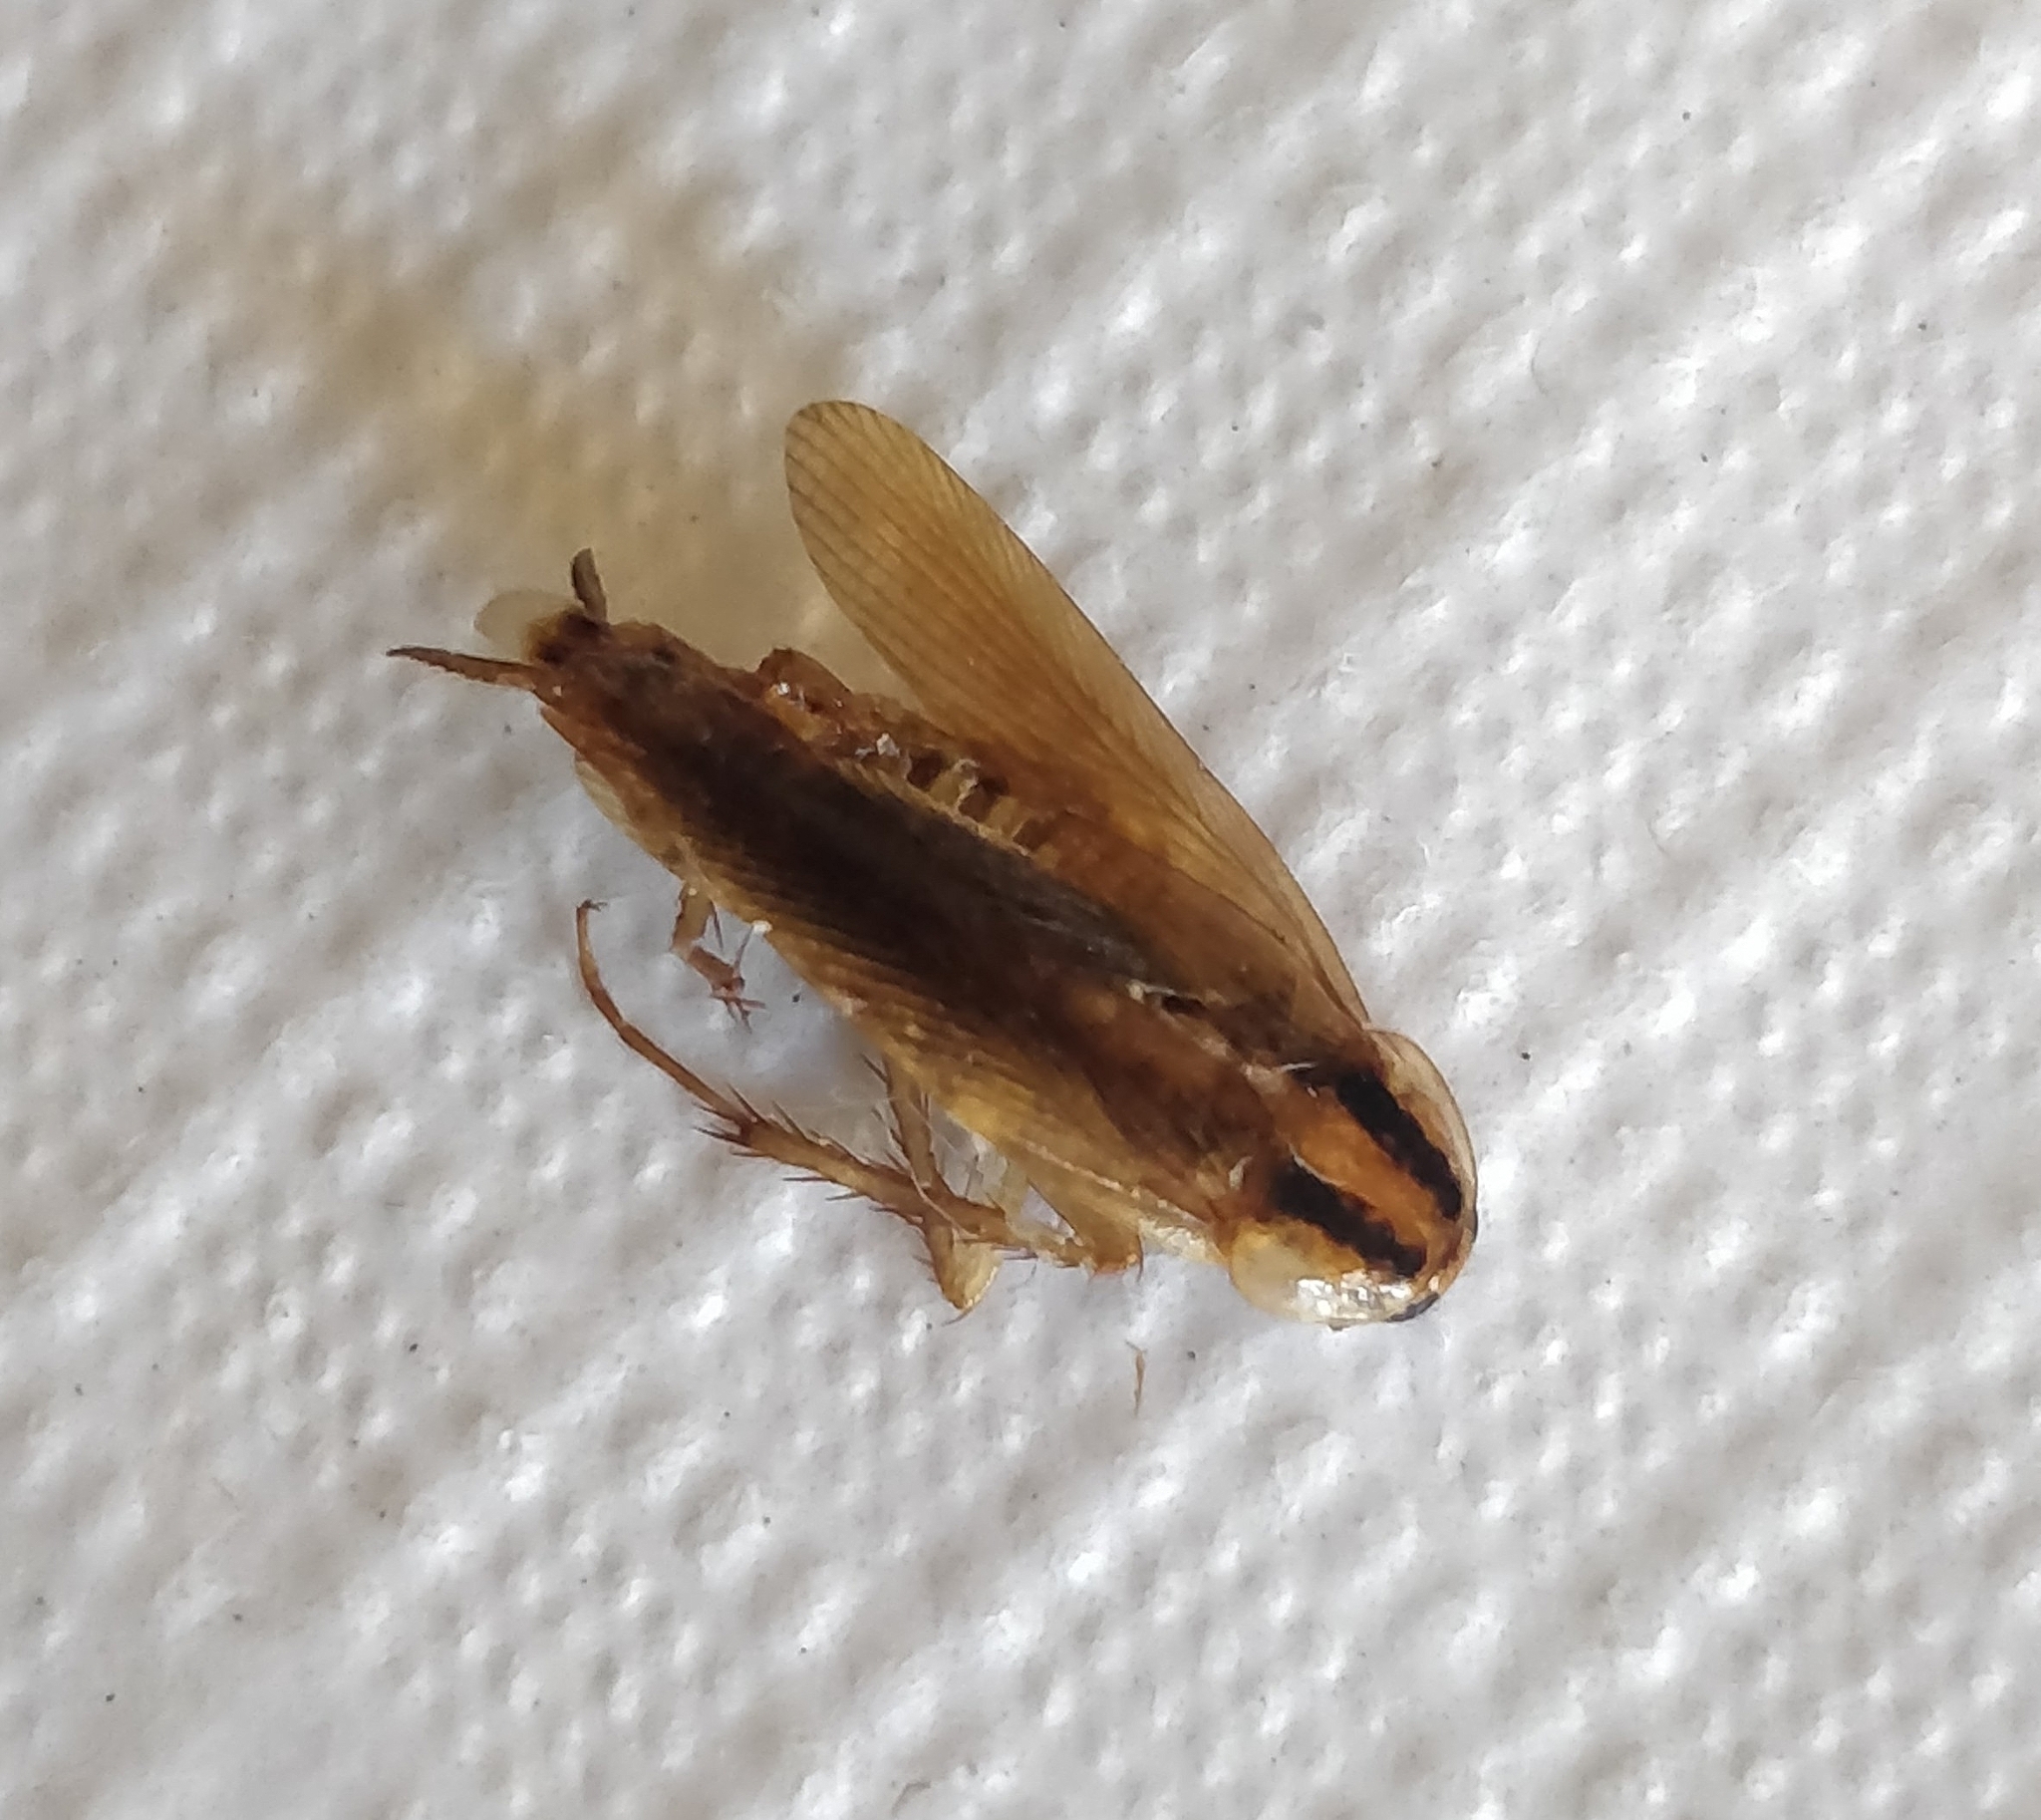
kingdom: Animalia
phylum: Arthropoda
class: Insecta
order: Blattodea
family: Ectobiidae
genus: Blattella
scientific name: Blattella germanica
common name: German cockroach
